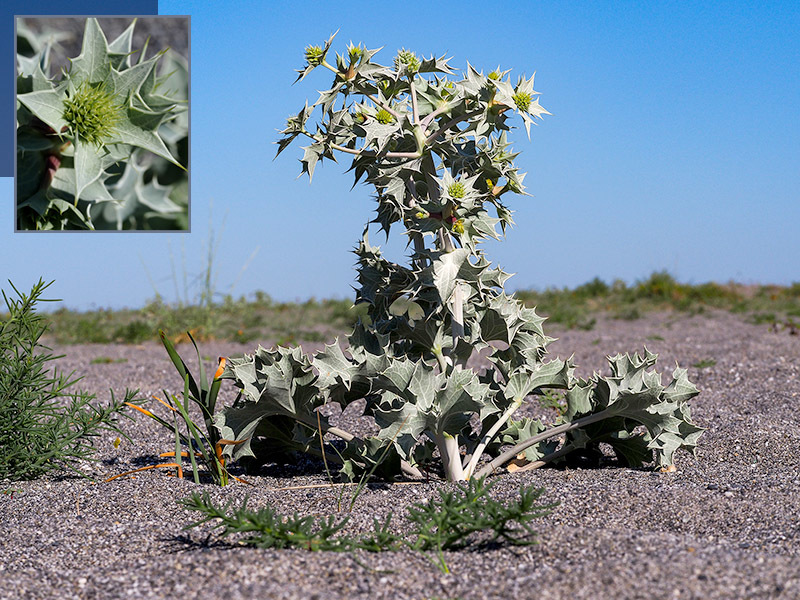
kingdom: Plantae
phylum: Tracheophyta
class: Magnoliopsida
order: Apiales
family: Apiaceae
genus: Eryngium
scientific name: Eryngium maritimum
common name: Sea-holly
